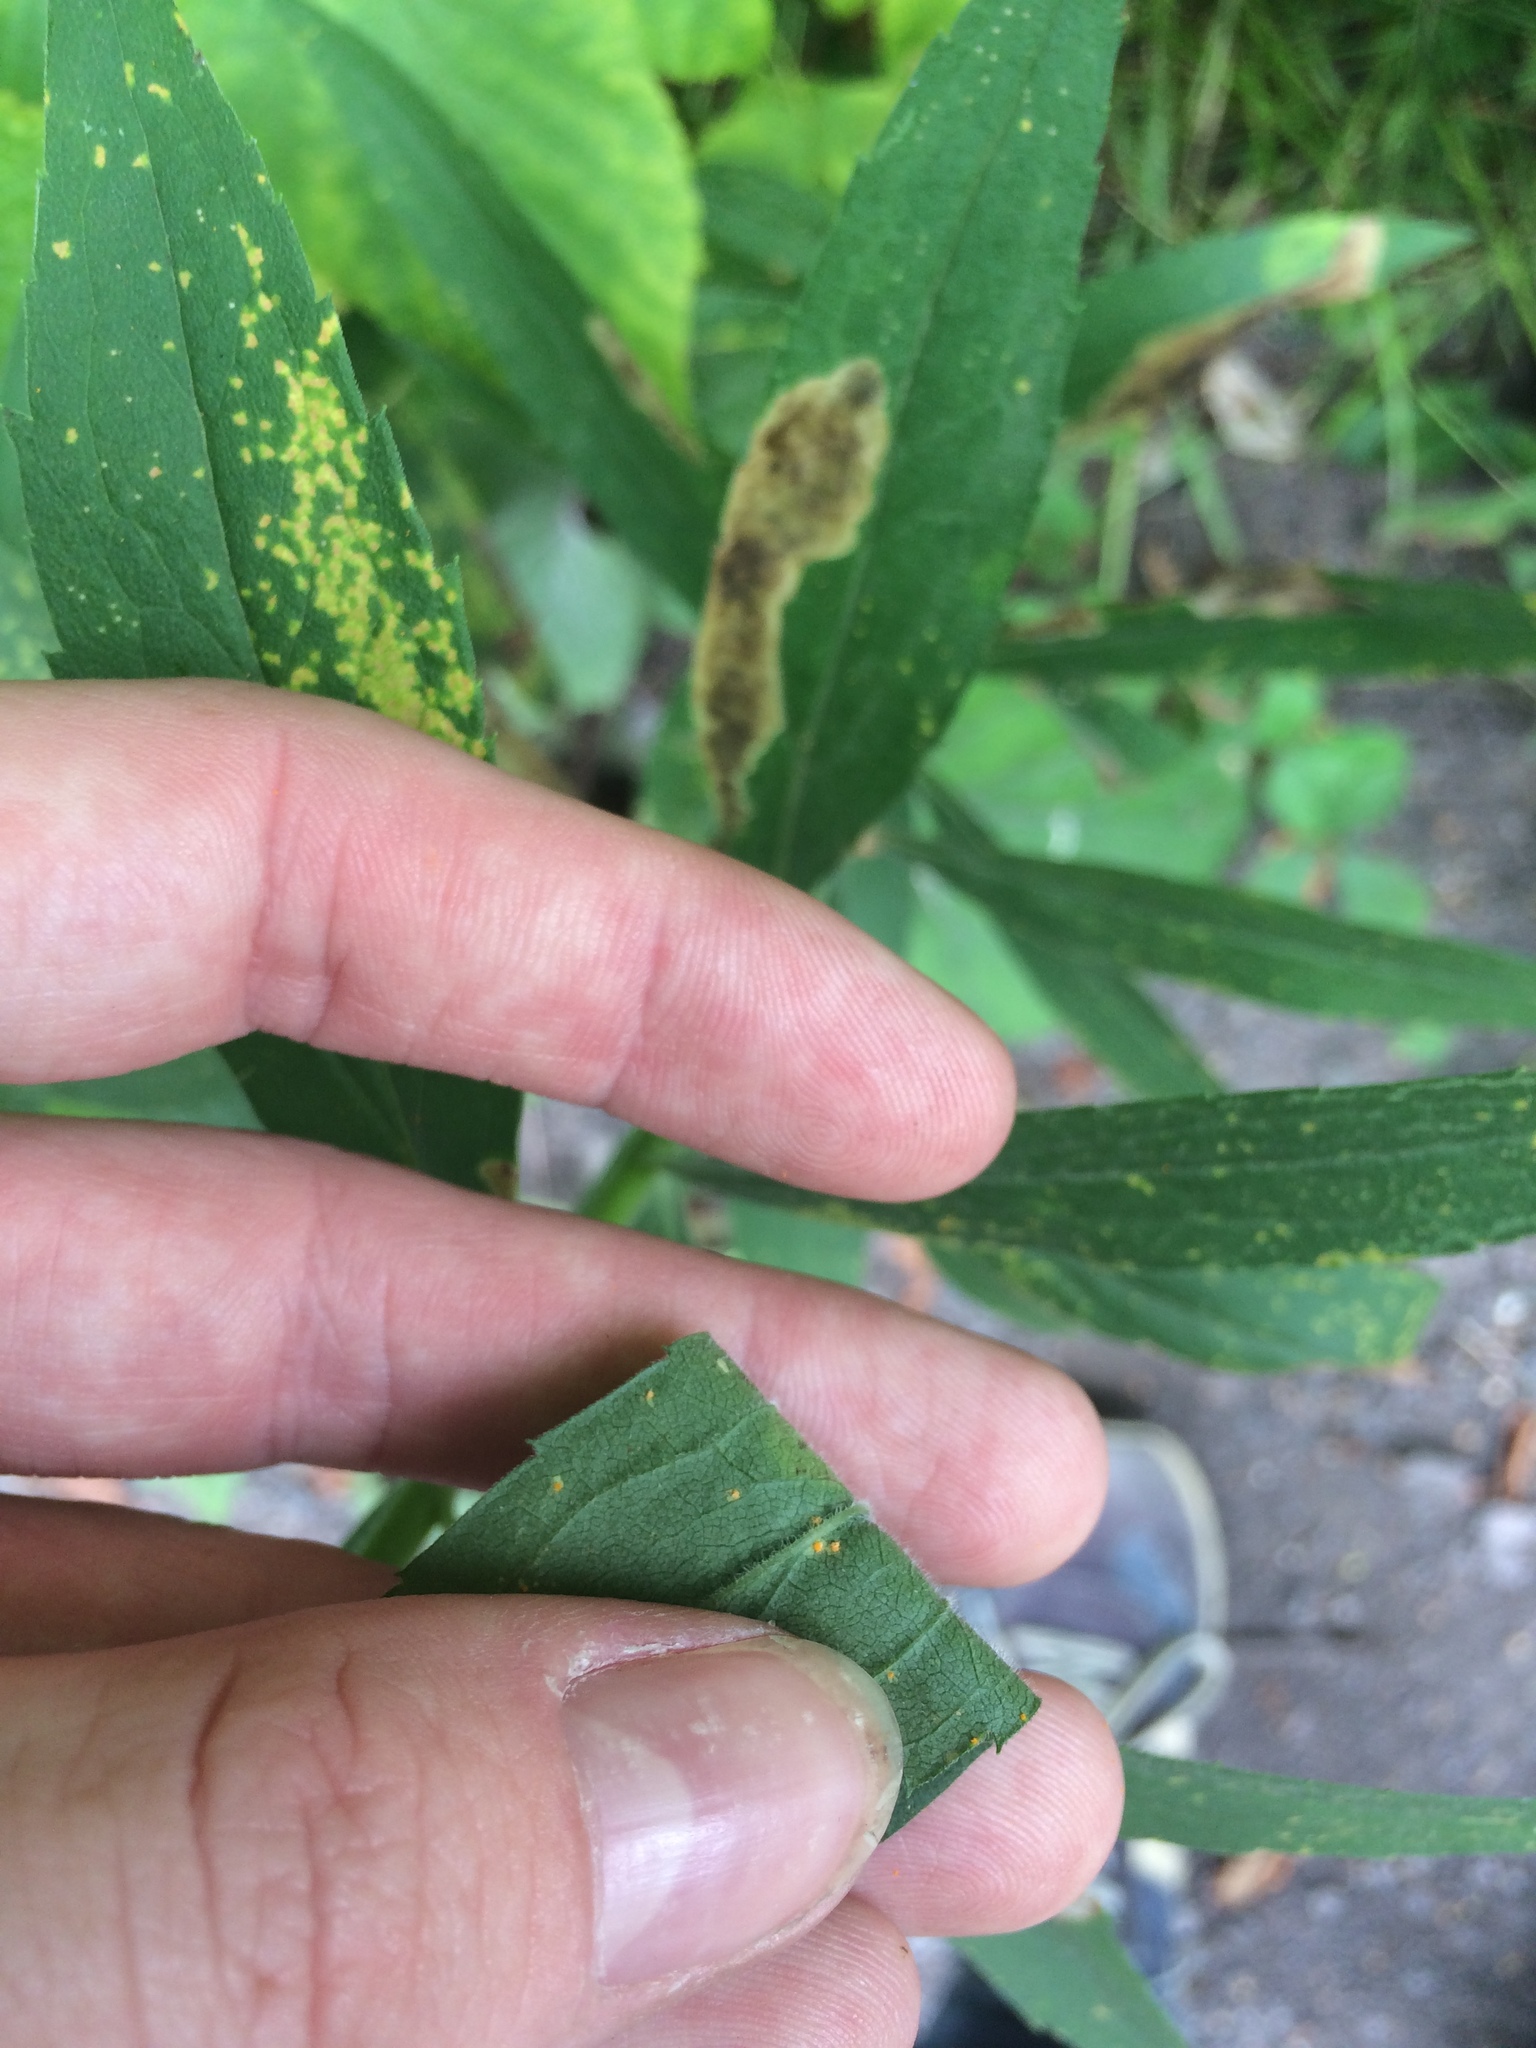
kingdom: Plantae
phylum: Tracheophyta
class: Magnoliopsida
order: Asterales
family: Asteraceae
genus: Solidago
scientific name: Solidago altissima
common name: Late goldenrod
